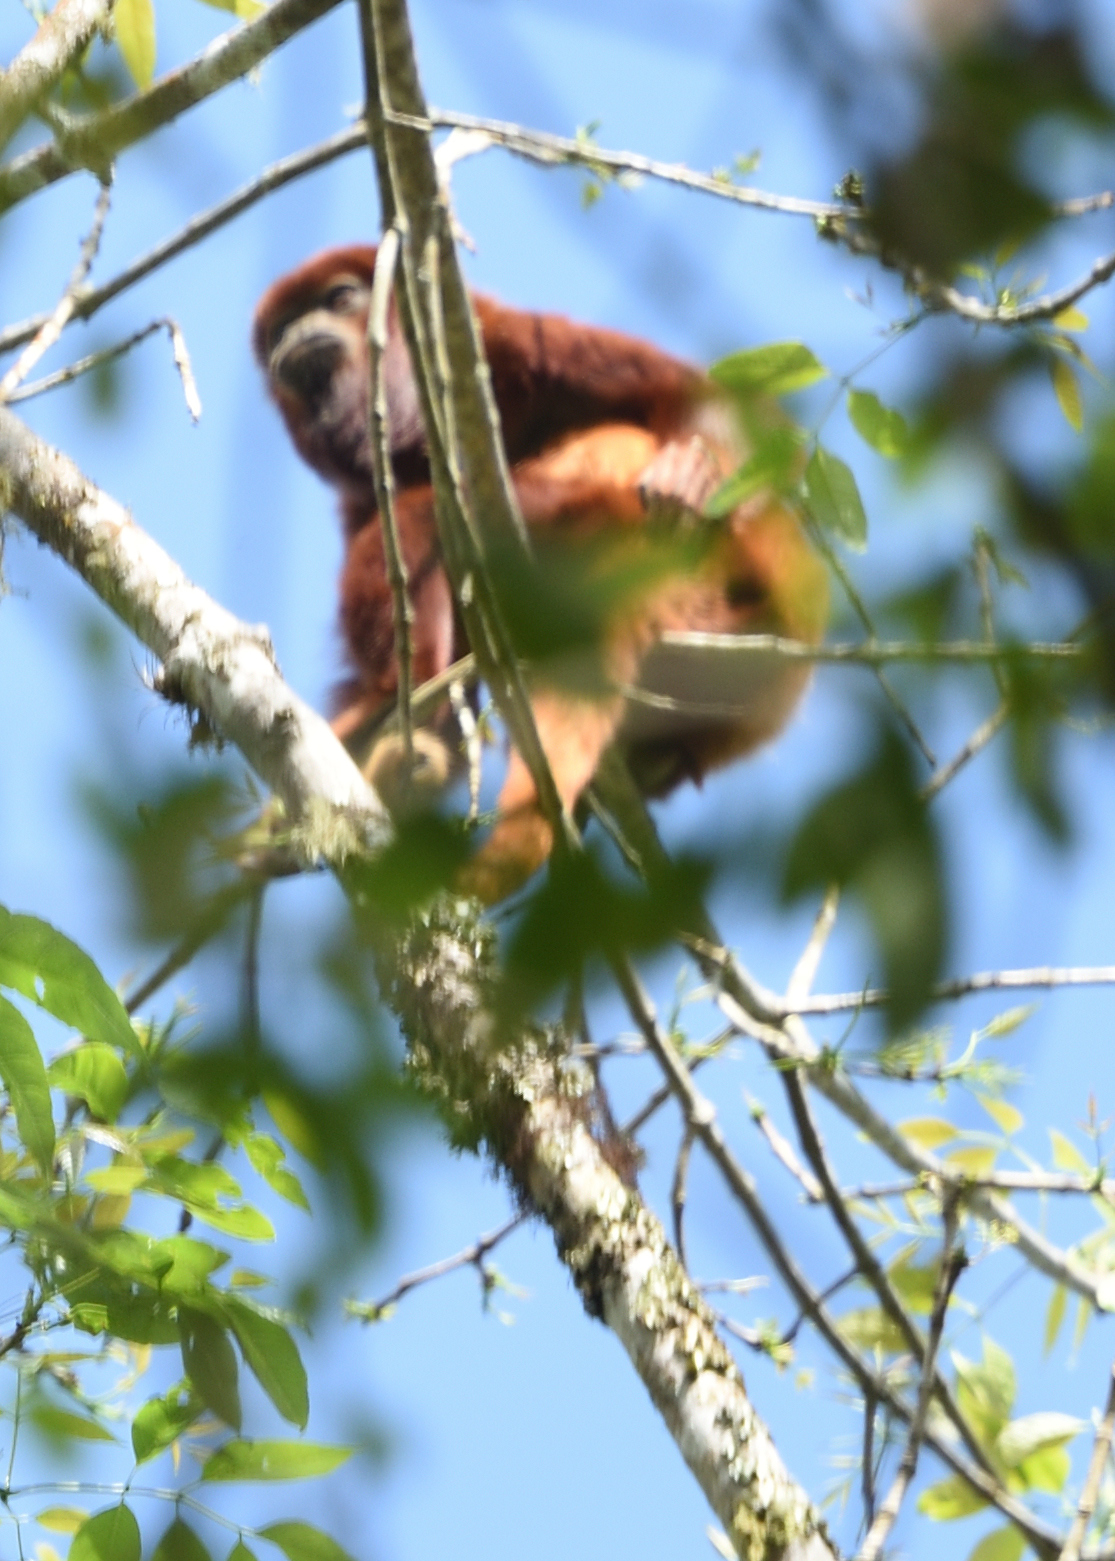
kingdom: Animalia
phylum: Chordata
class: Mammalia
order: Primates
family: Atelidae
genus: Alouatta
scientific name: Alouatta seniculus
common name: Venezuelan red howler
